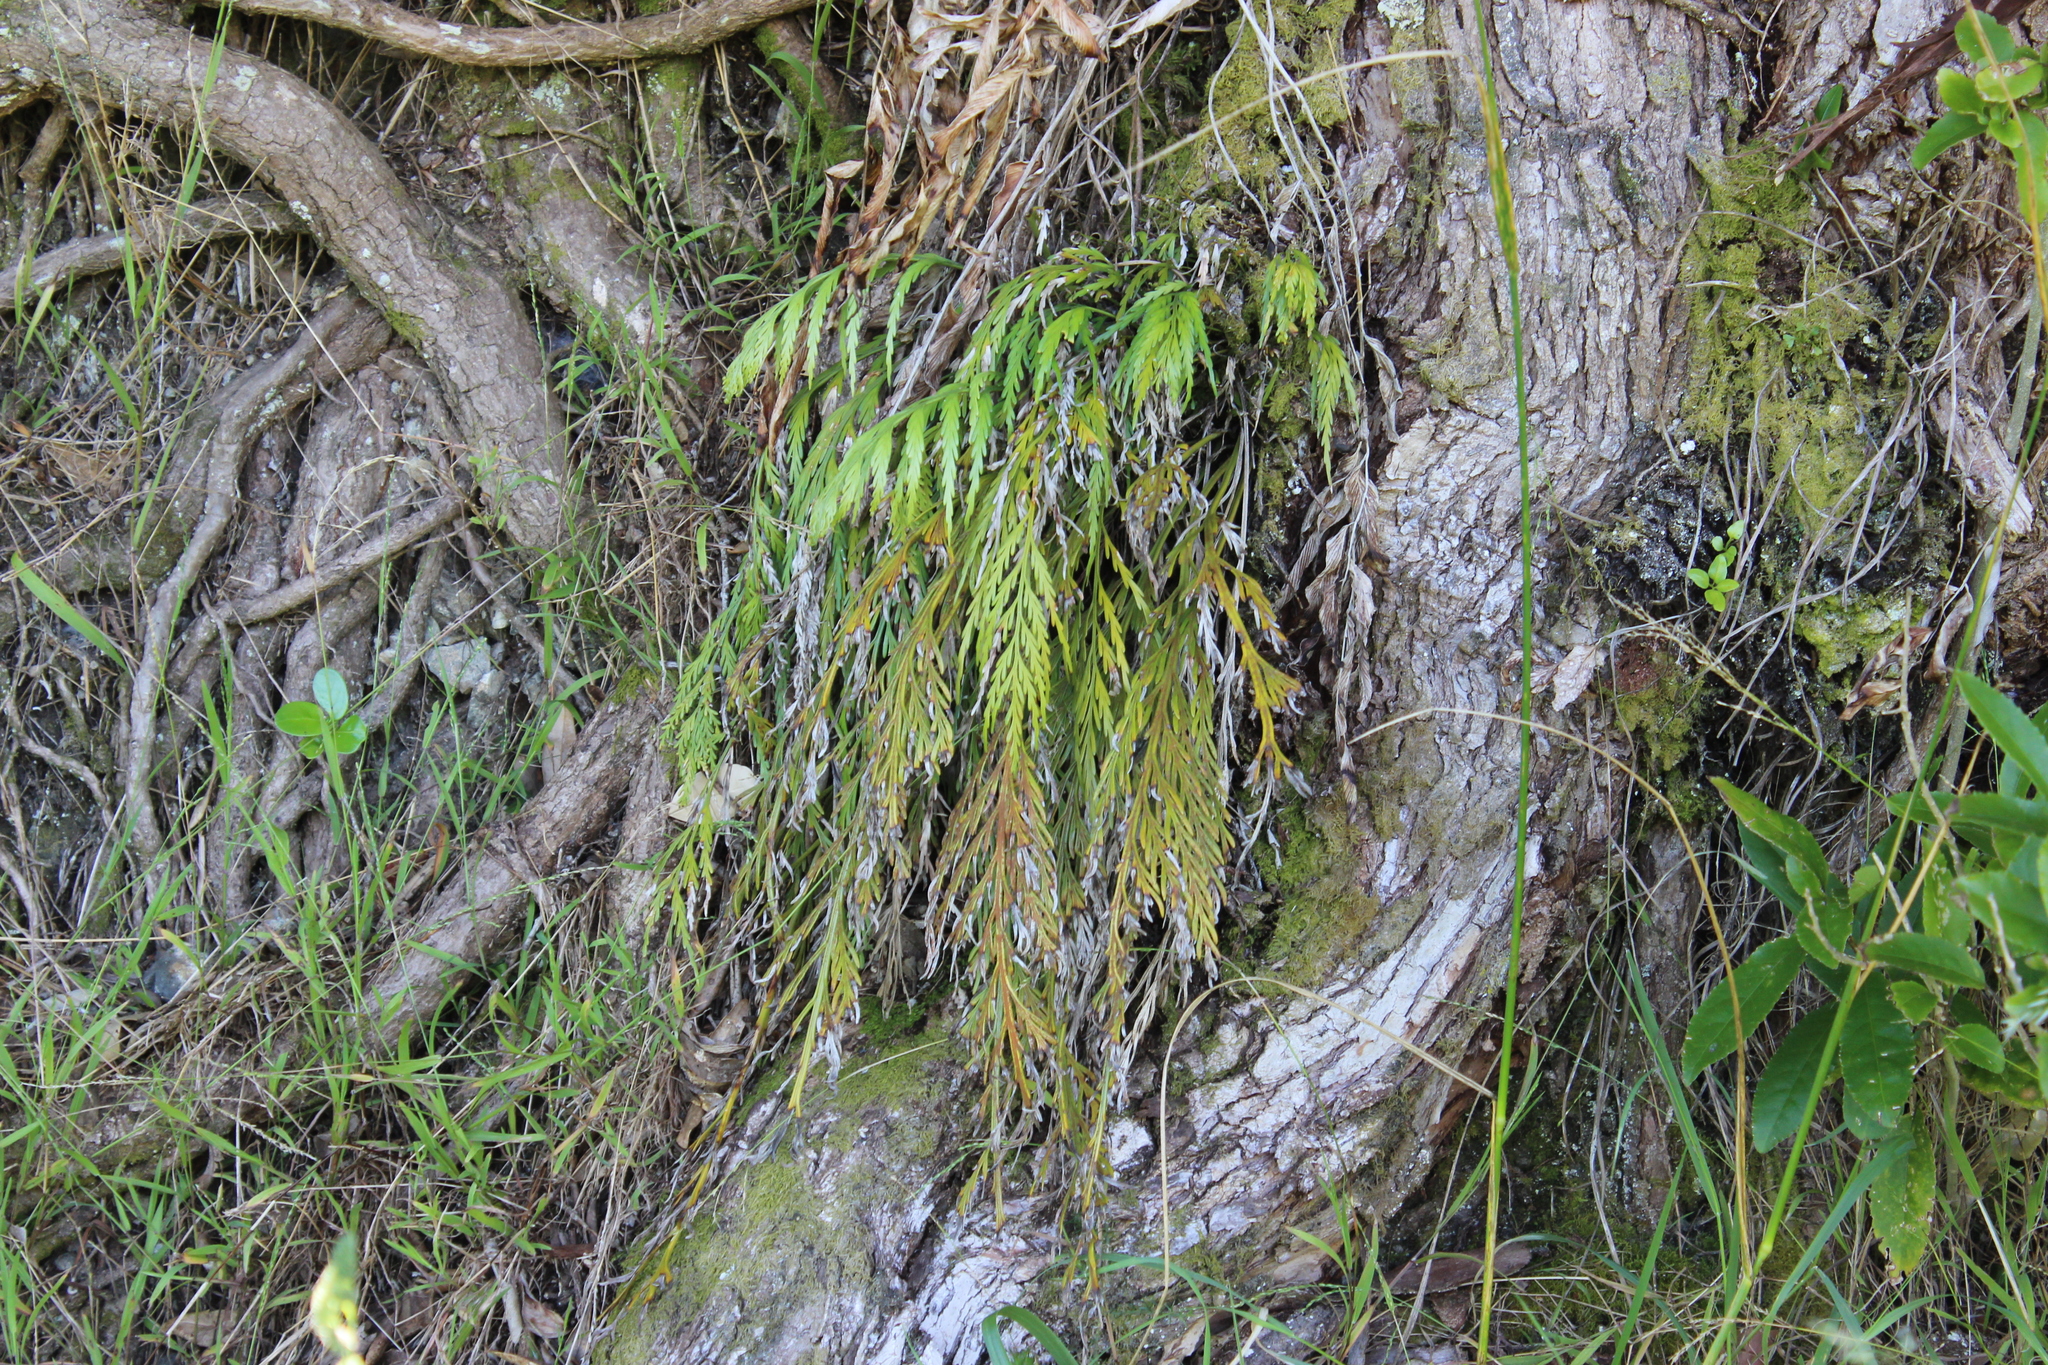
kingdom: Plantae
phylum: Tracheophyta
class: Polypodiopsida
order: Polypodiales
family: Aspleniaceae
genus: Asplenium
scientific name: Asplenium flaccidum
